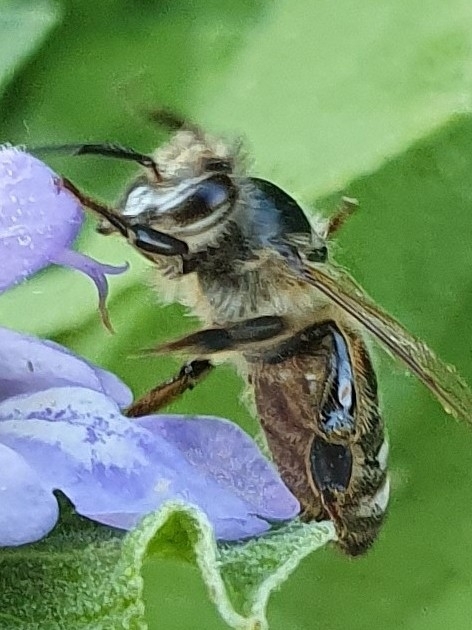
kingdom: Animalia
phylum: Arthropoda
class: Insecta
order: Hymenoptera
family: Apidae
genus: Apis
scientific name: Apis mellifera
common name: Honey bee
